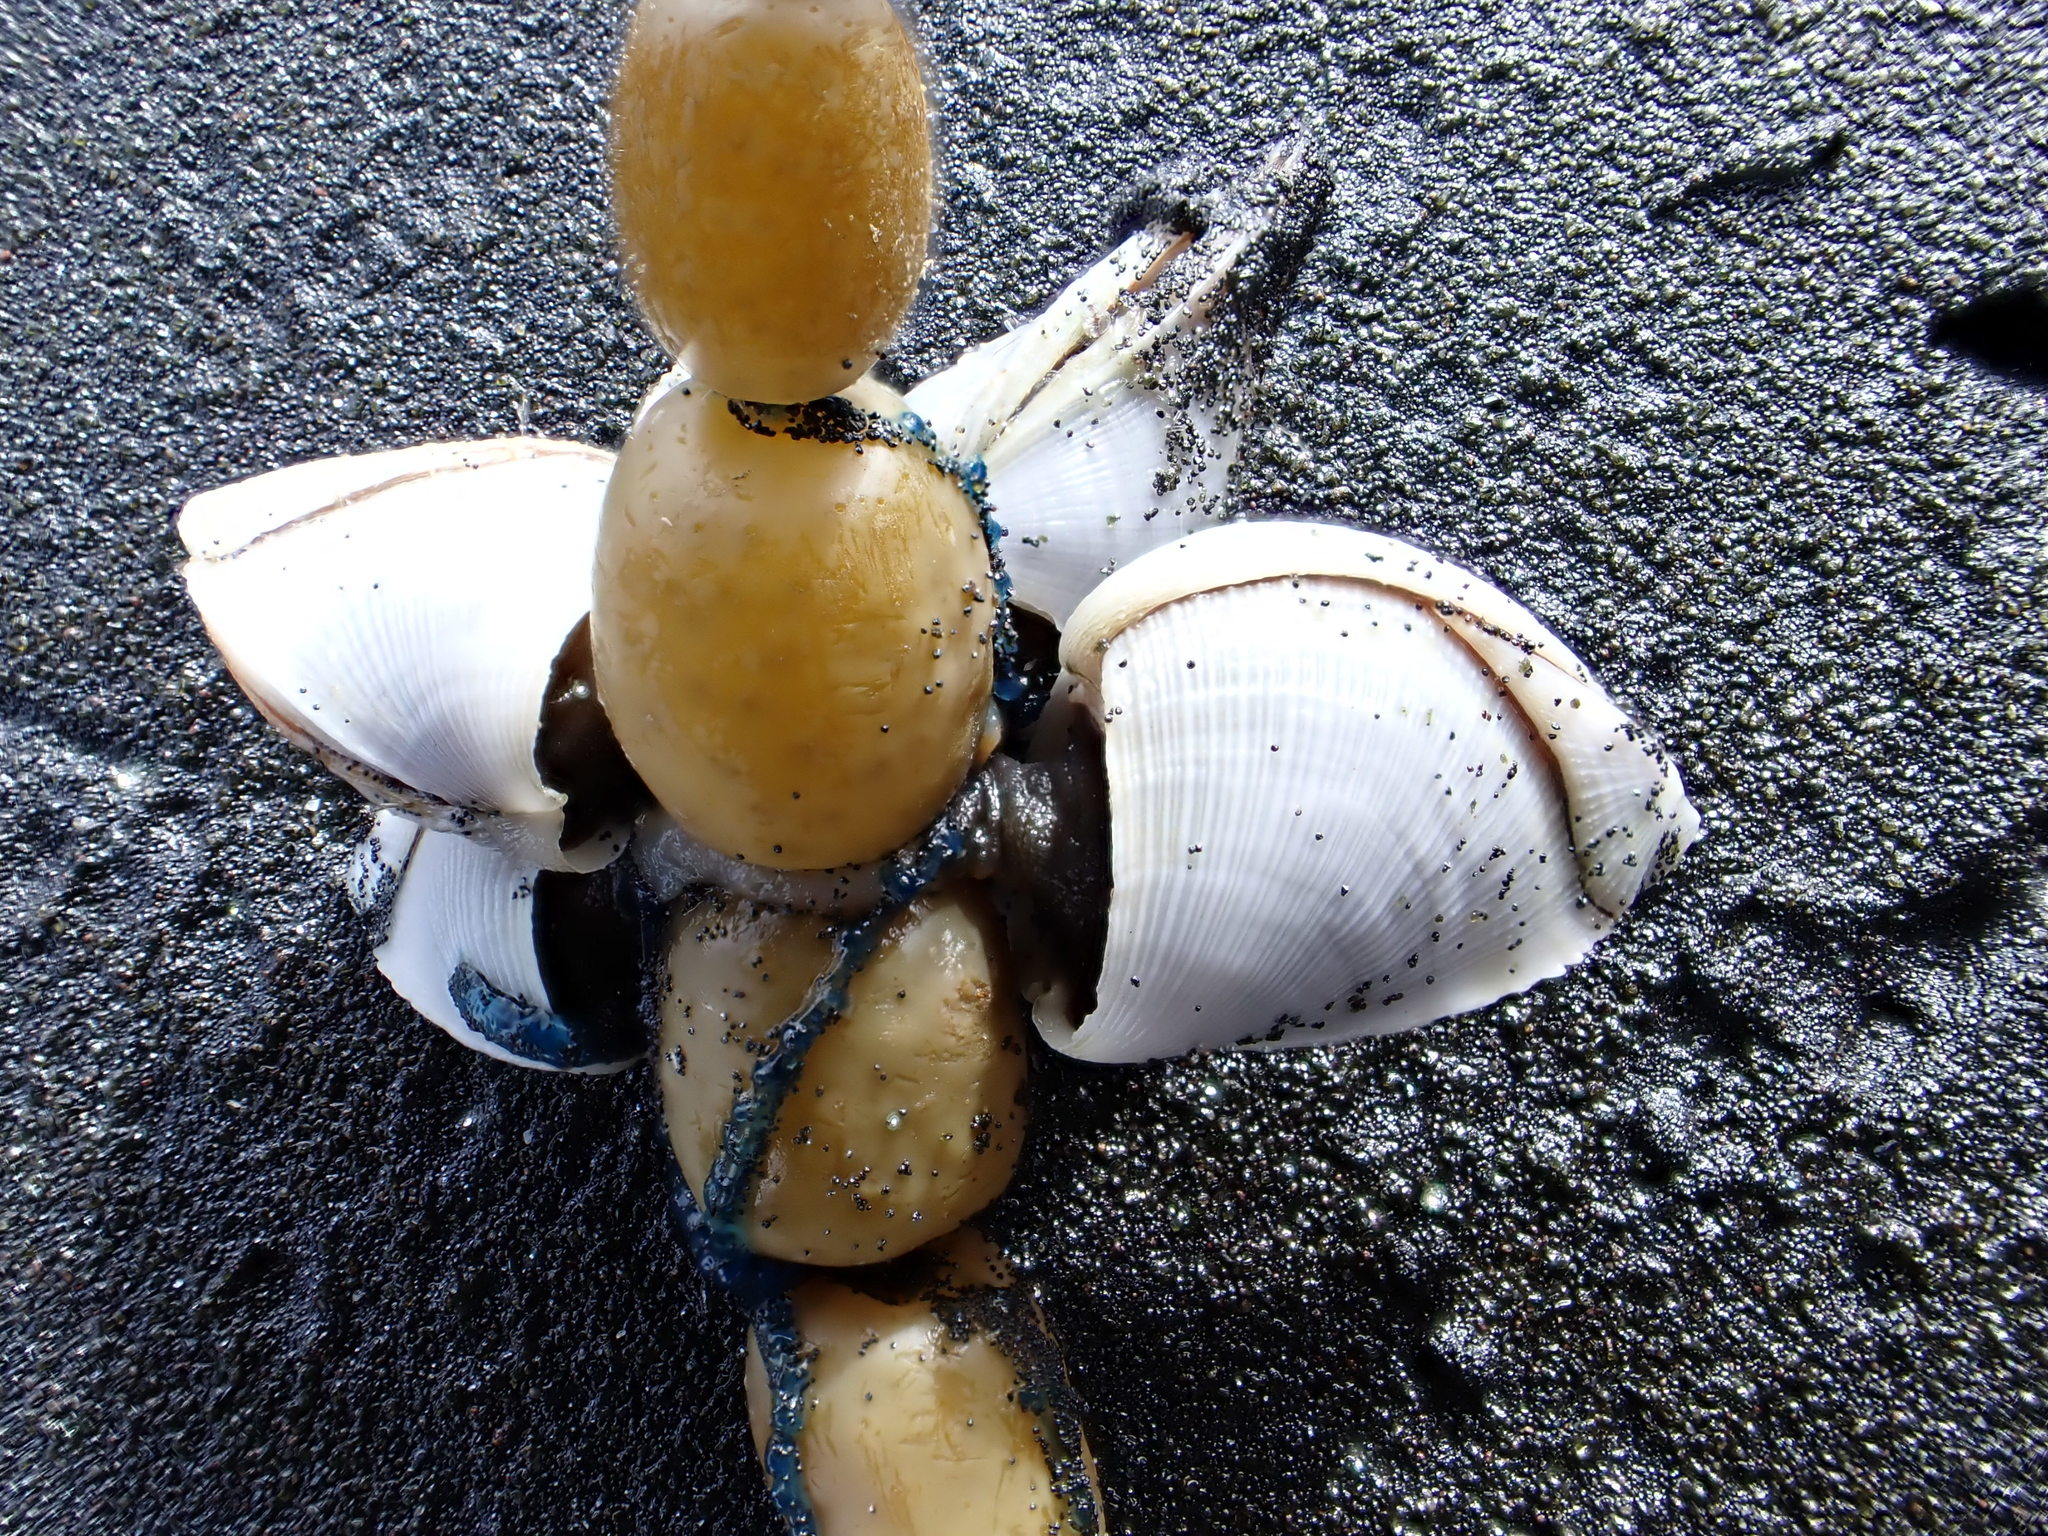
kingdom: Animalia
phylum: Arthropoda
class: Maxillopoda
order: Pedunculata
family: Lepadidae
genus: Lepas
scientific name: Lepas pectinata
